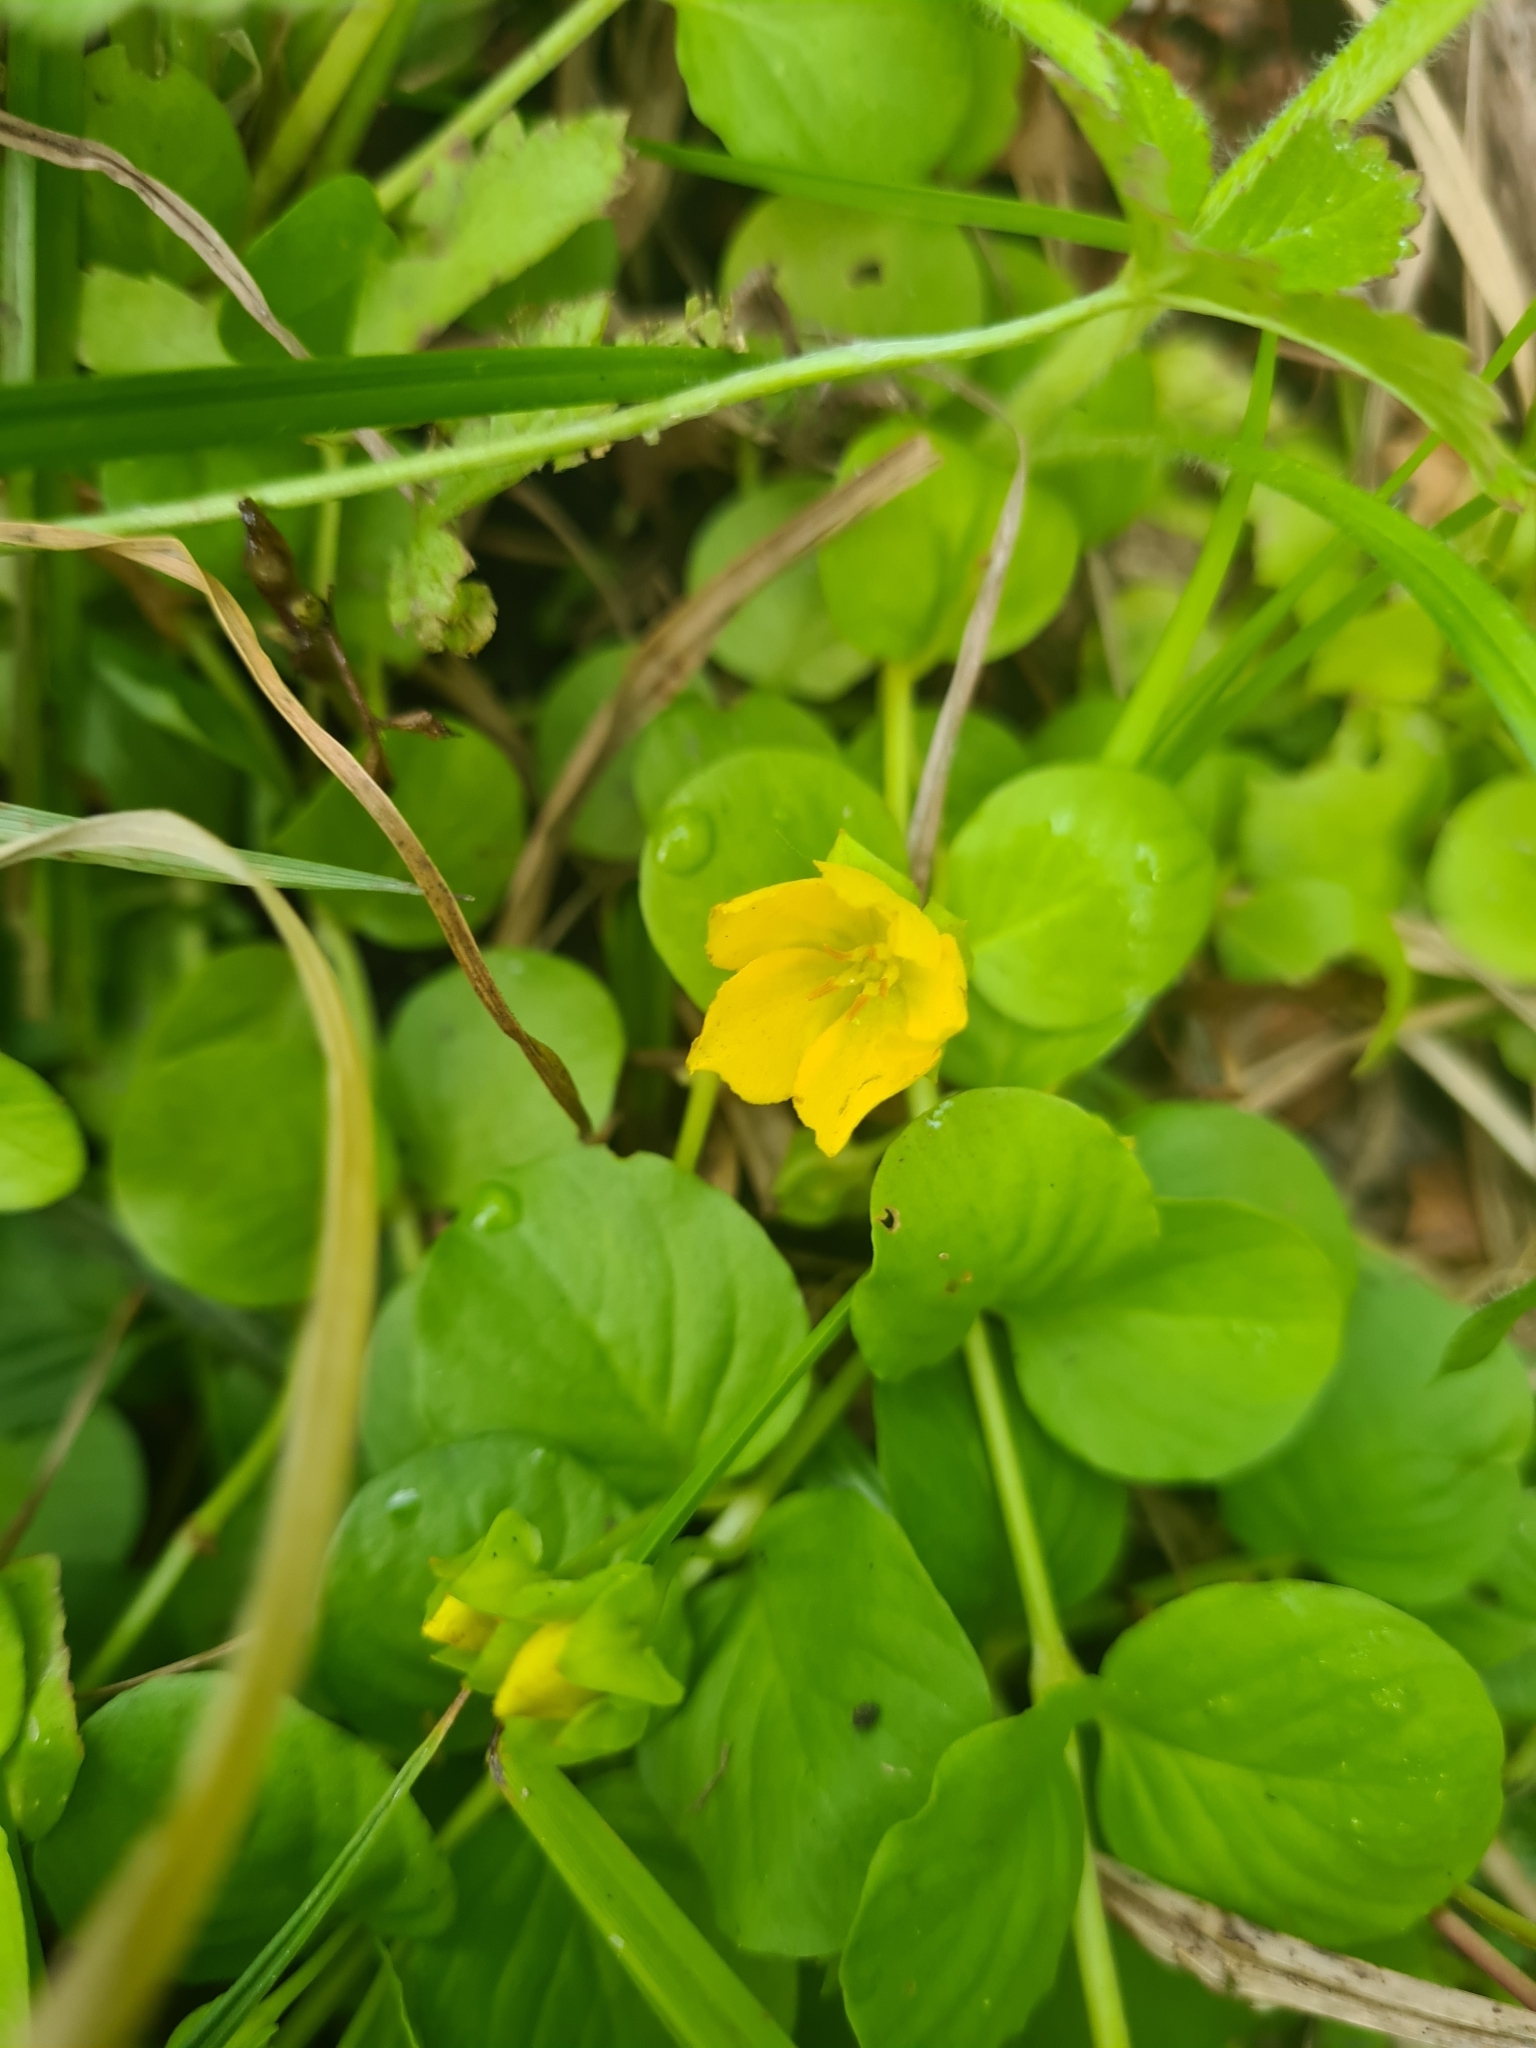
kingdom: Plantae
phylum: Tracheophyta
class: Magnoliopsida
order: Ericales
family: Primulaceae
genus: Lysimachia
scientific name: Lysimachia nummularia
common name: Moneywort
